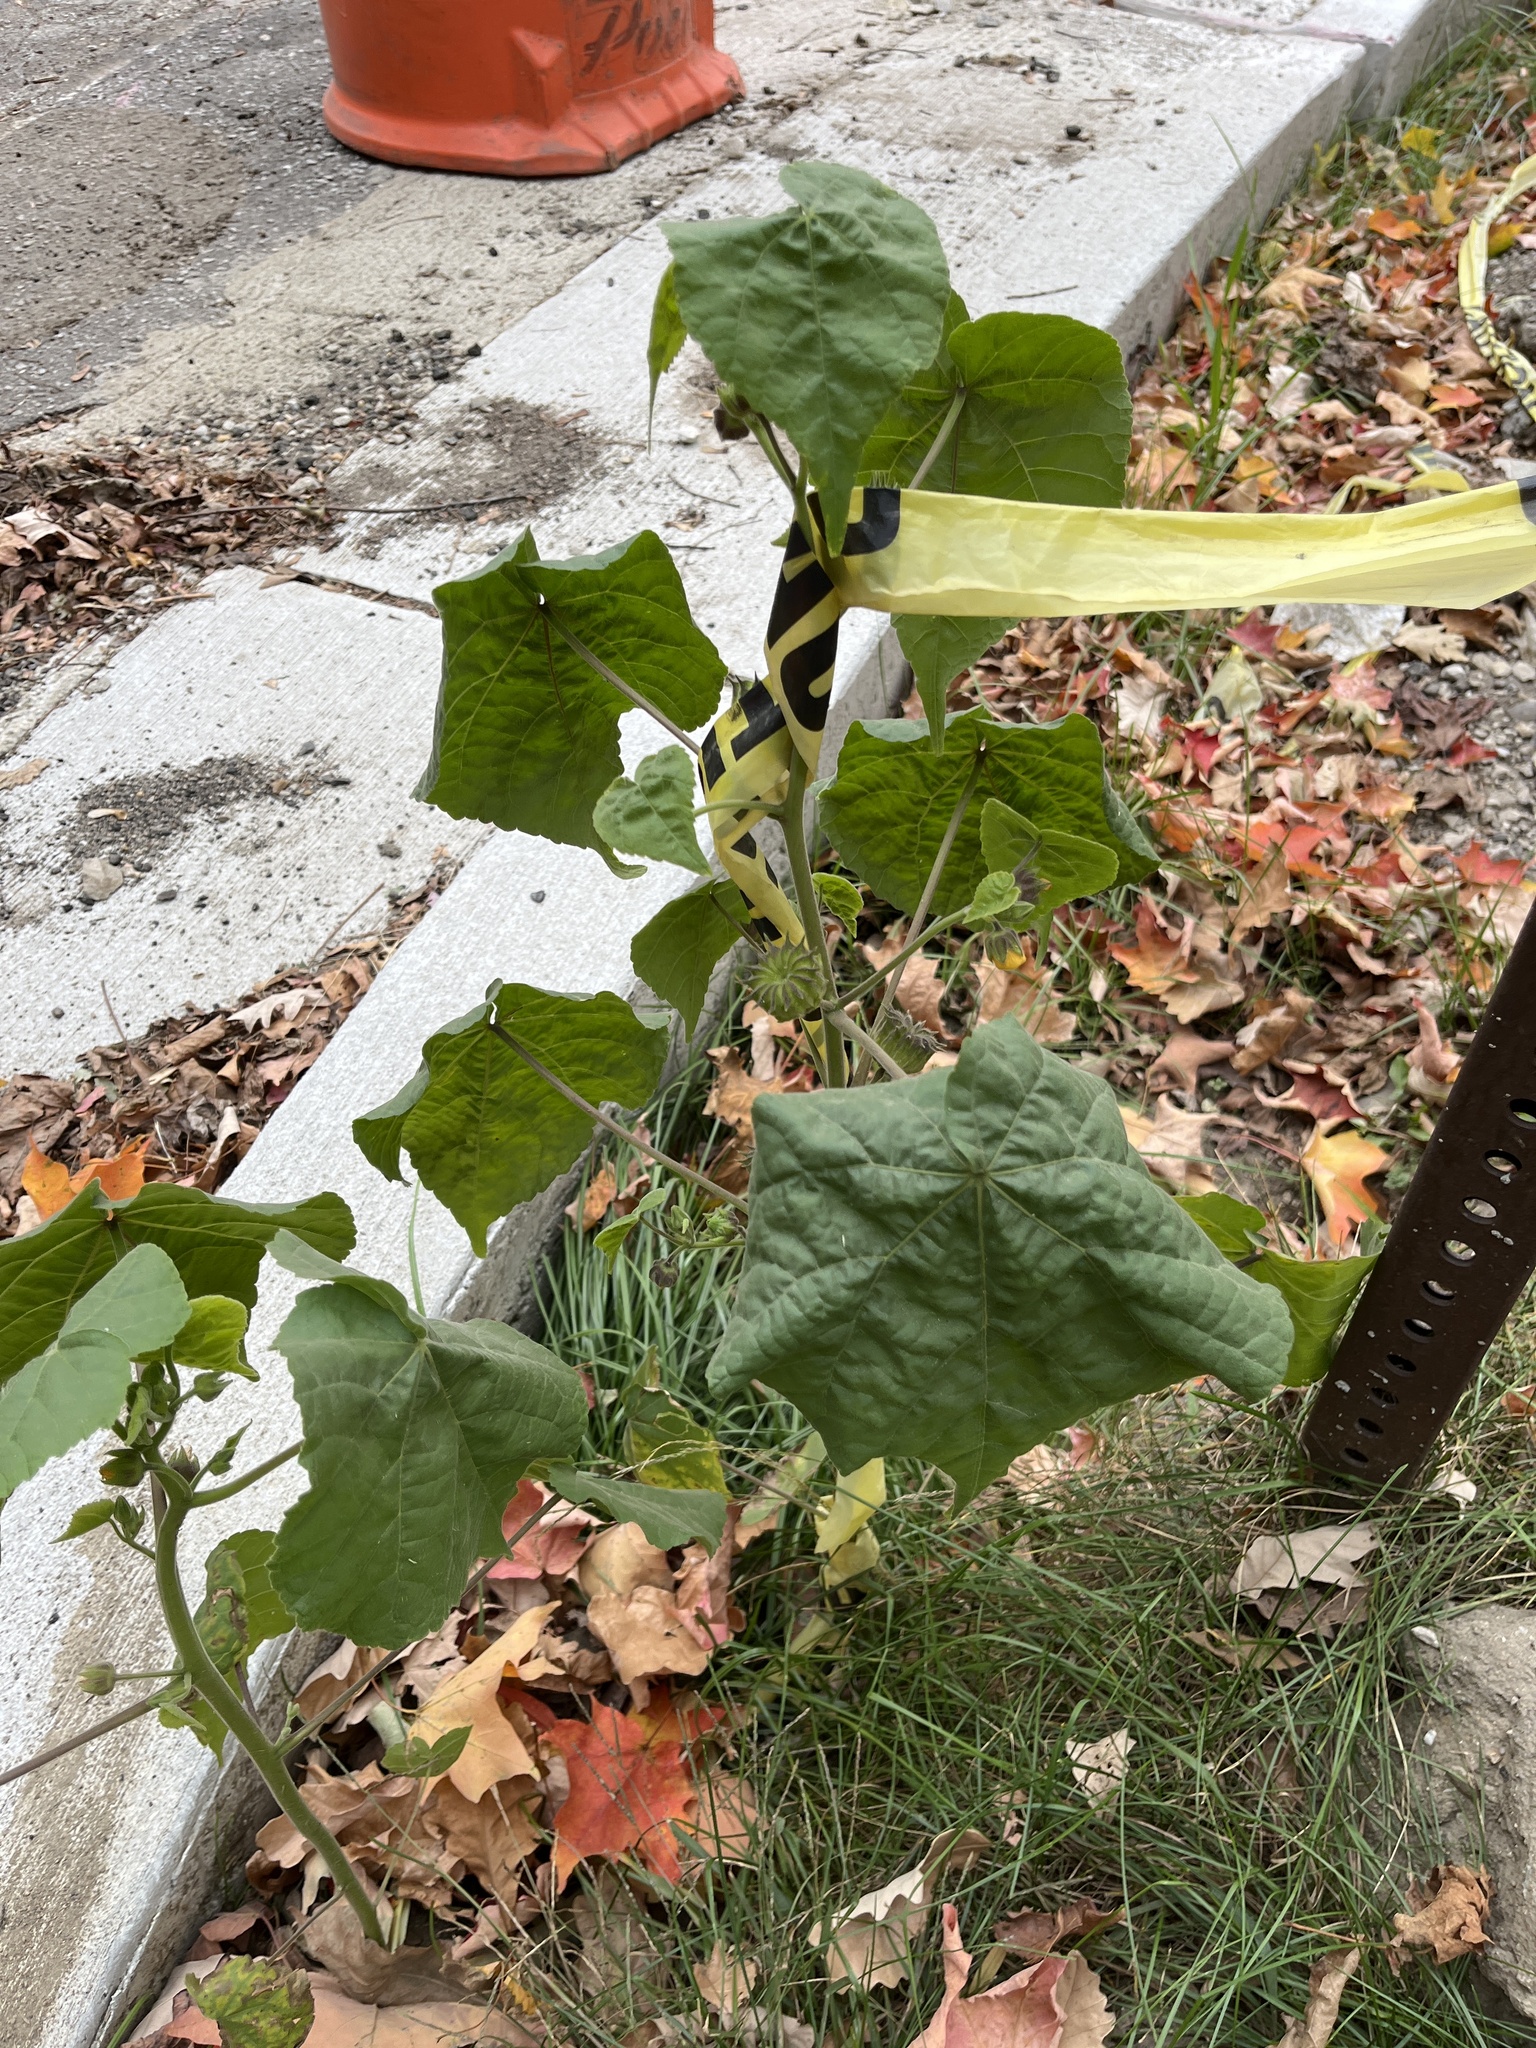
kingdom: Plantae
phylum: Tracheophyta
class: Magnoliopsida
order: Malvales
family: Malvaceae
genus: Abutilon
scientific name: Abutilon theophrasti
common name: Velvetleaf
